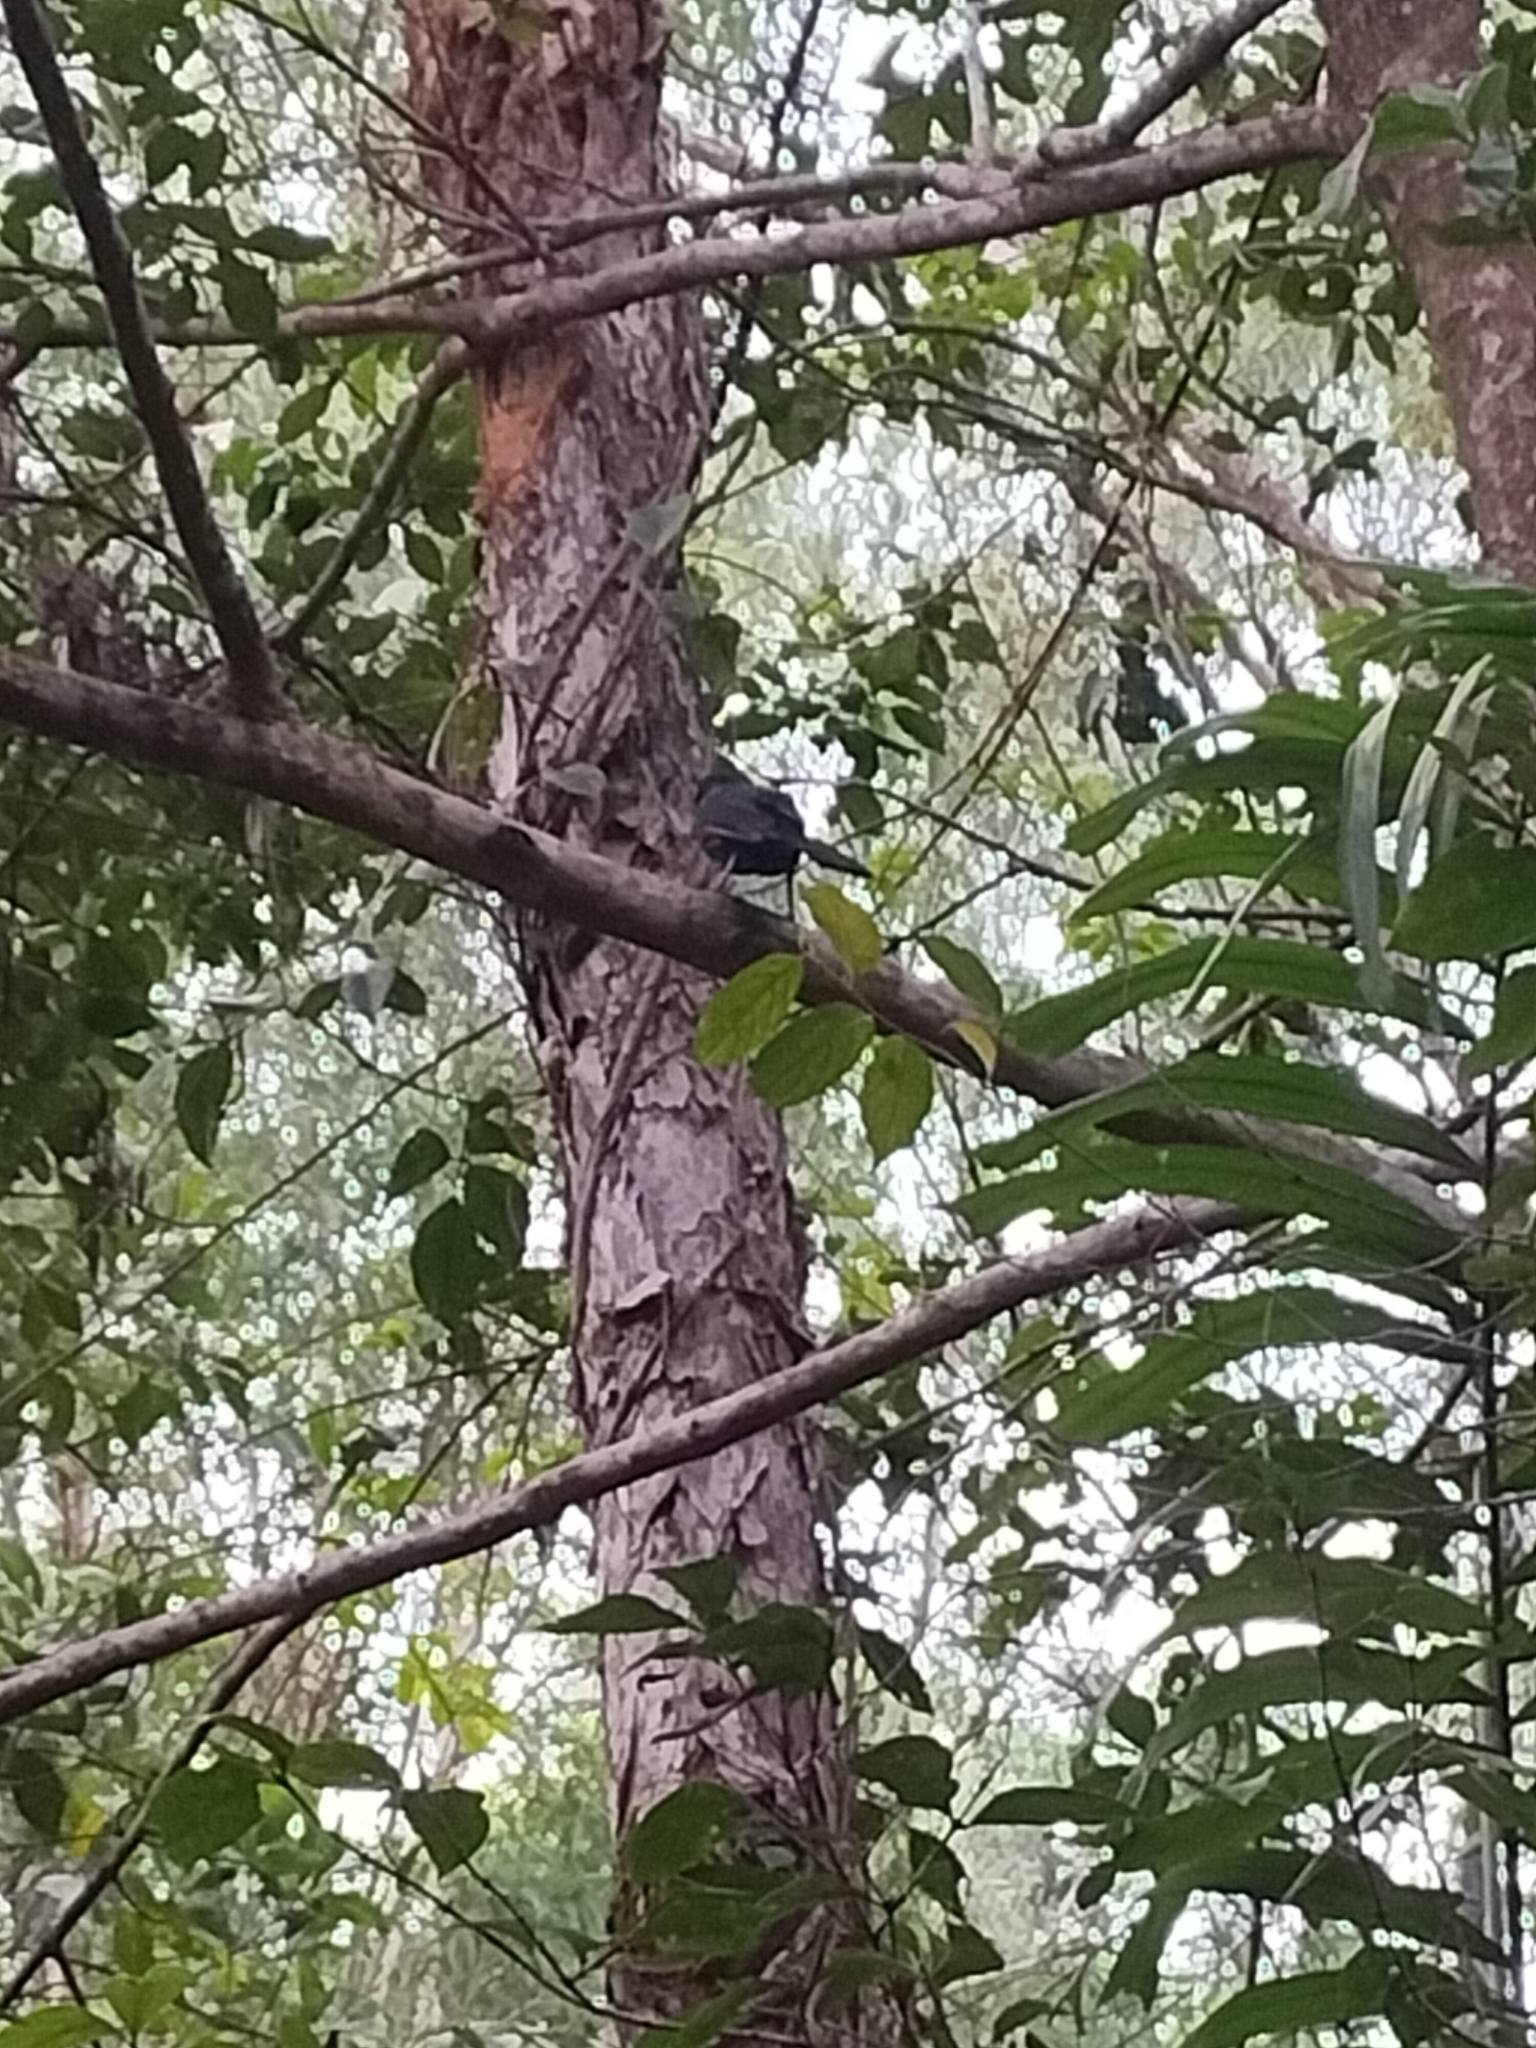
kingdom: Animalia
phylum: Chordata
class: Aves
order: Passeriformes
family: Artamidae
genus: Melloria
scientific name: Melloria quoyi
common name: Black butcherbird
